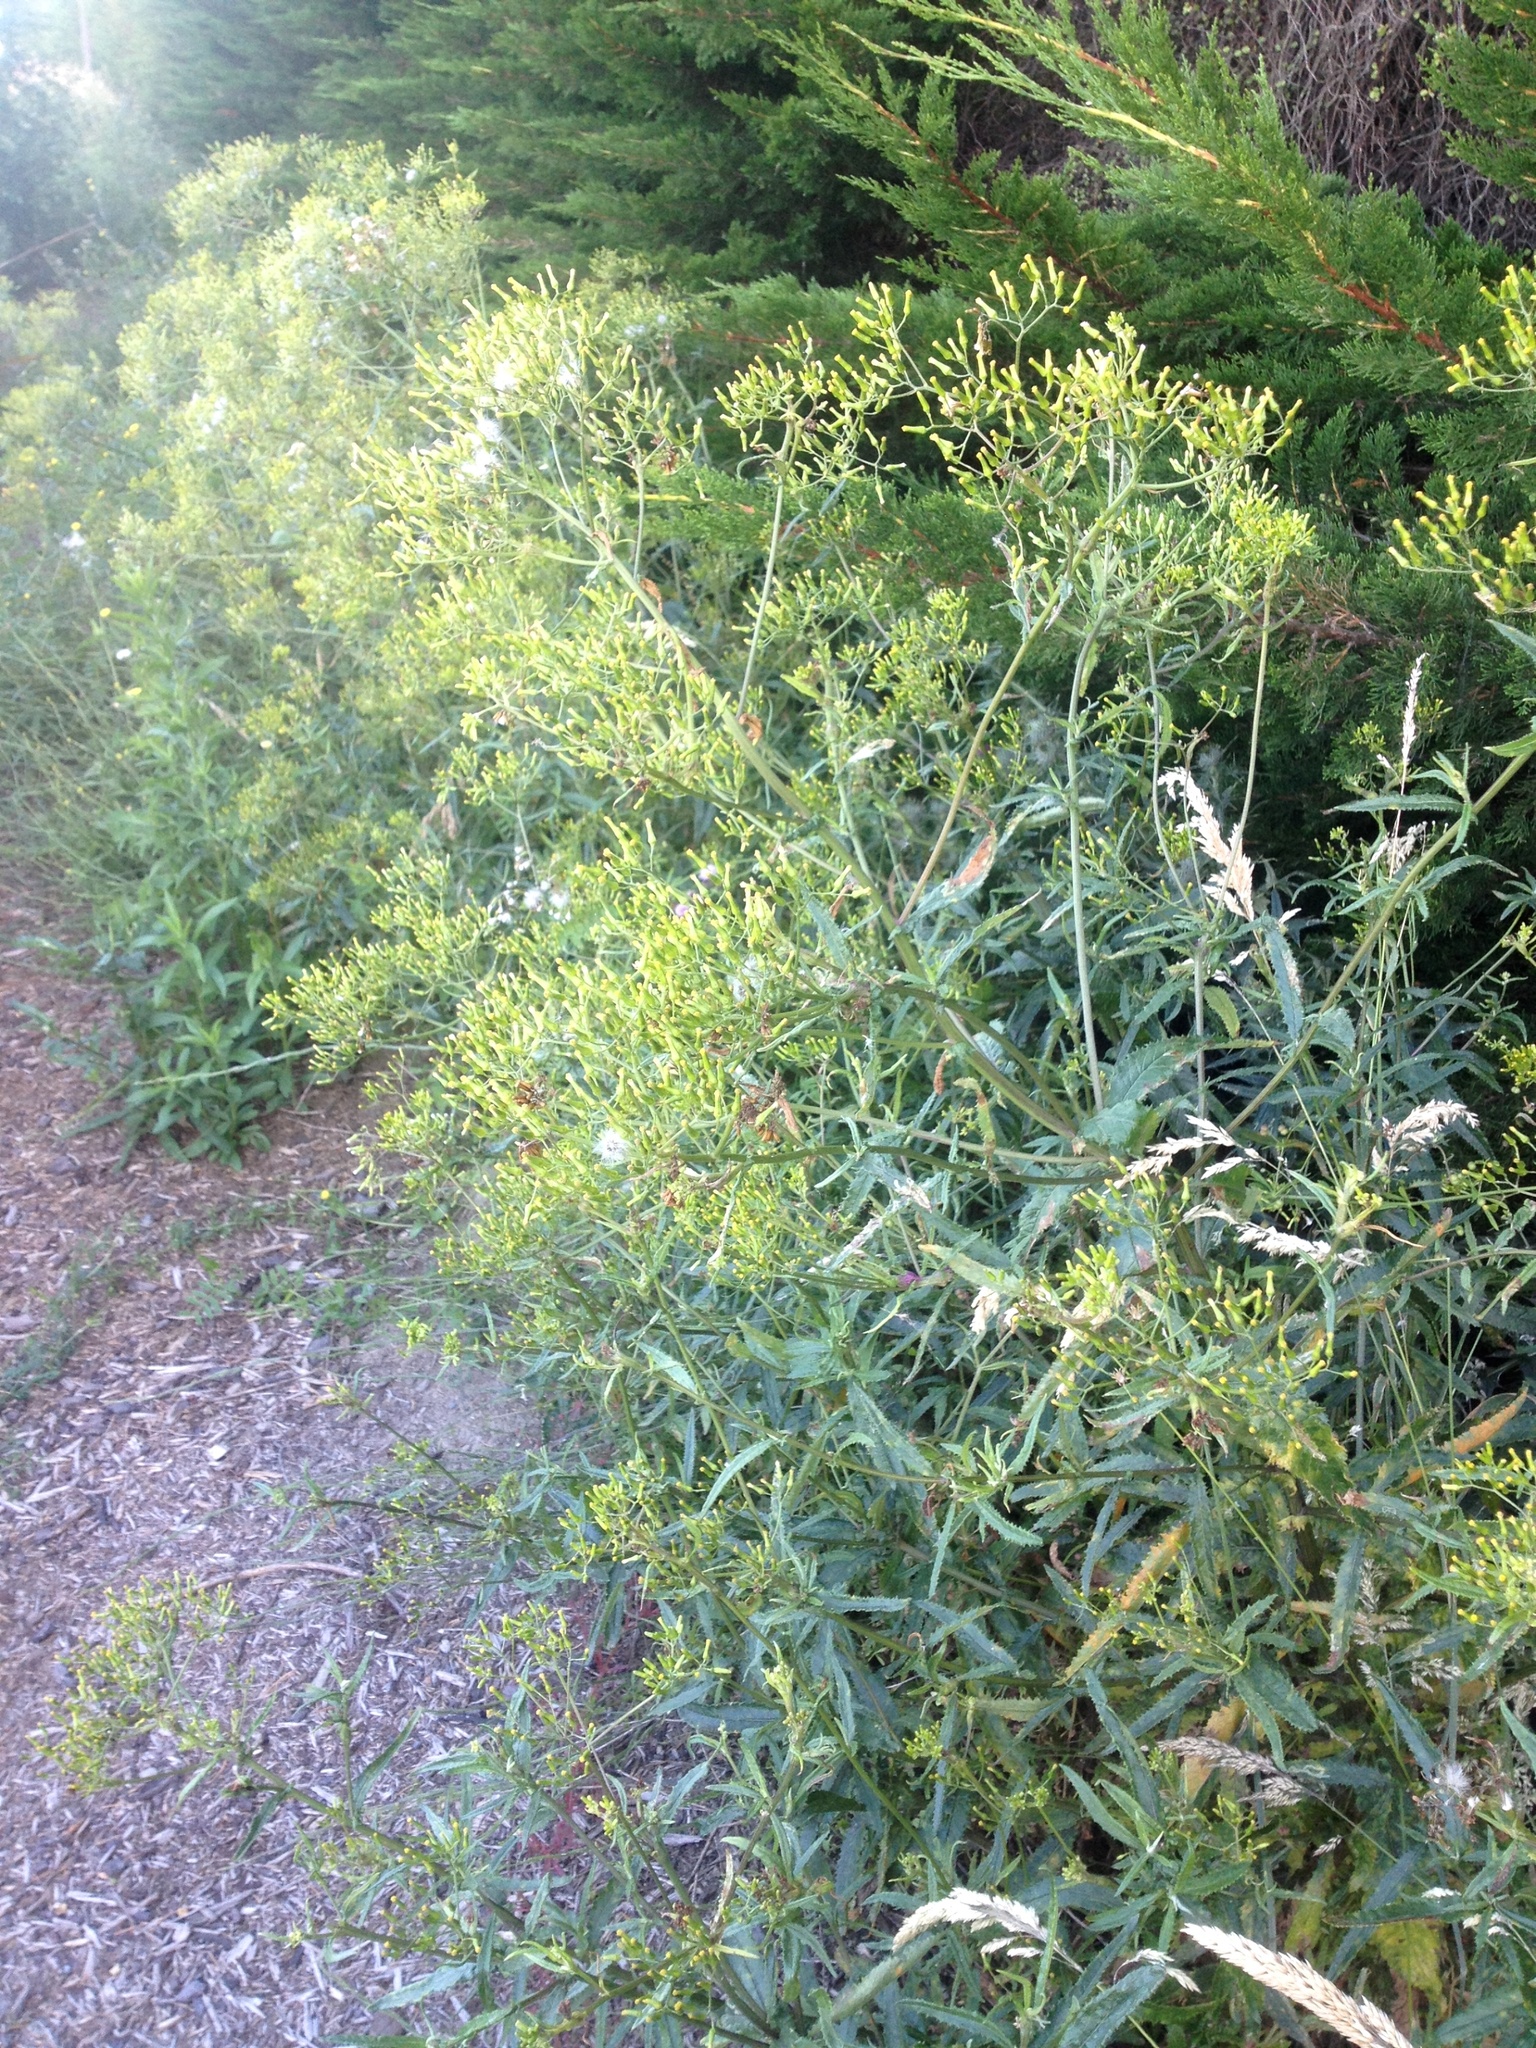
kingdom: Plantae
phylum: Tracheophyta
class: Magnoliopsida
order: Asterales
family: Asteraceae
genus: Senecio
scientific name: Senecio minimus
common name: Toothed fireweed
